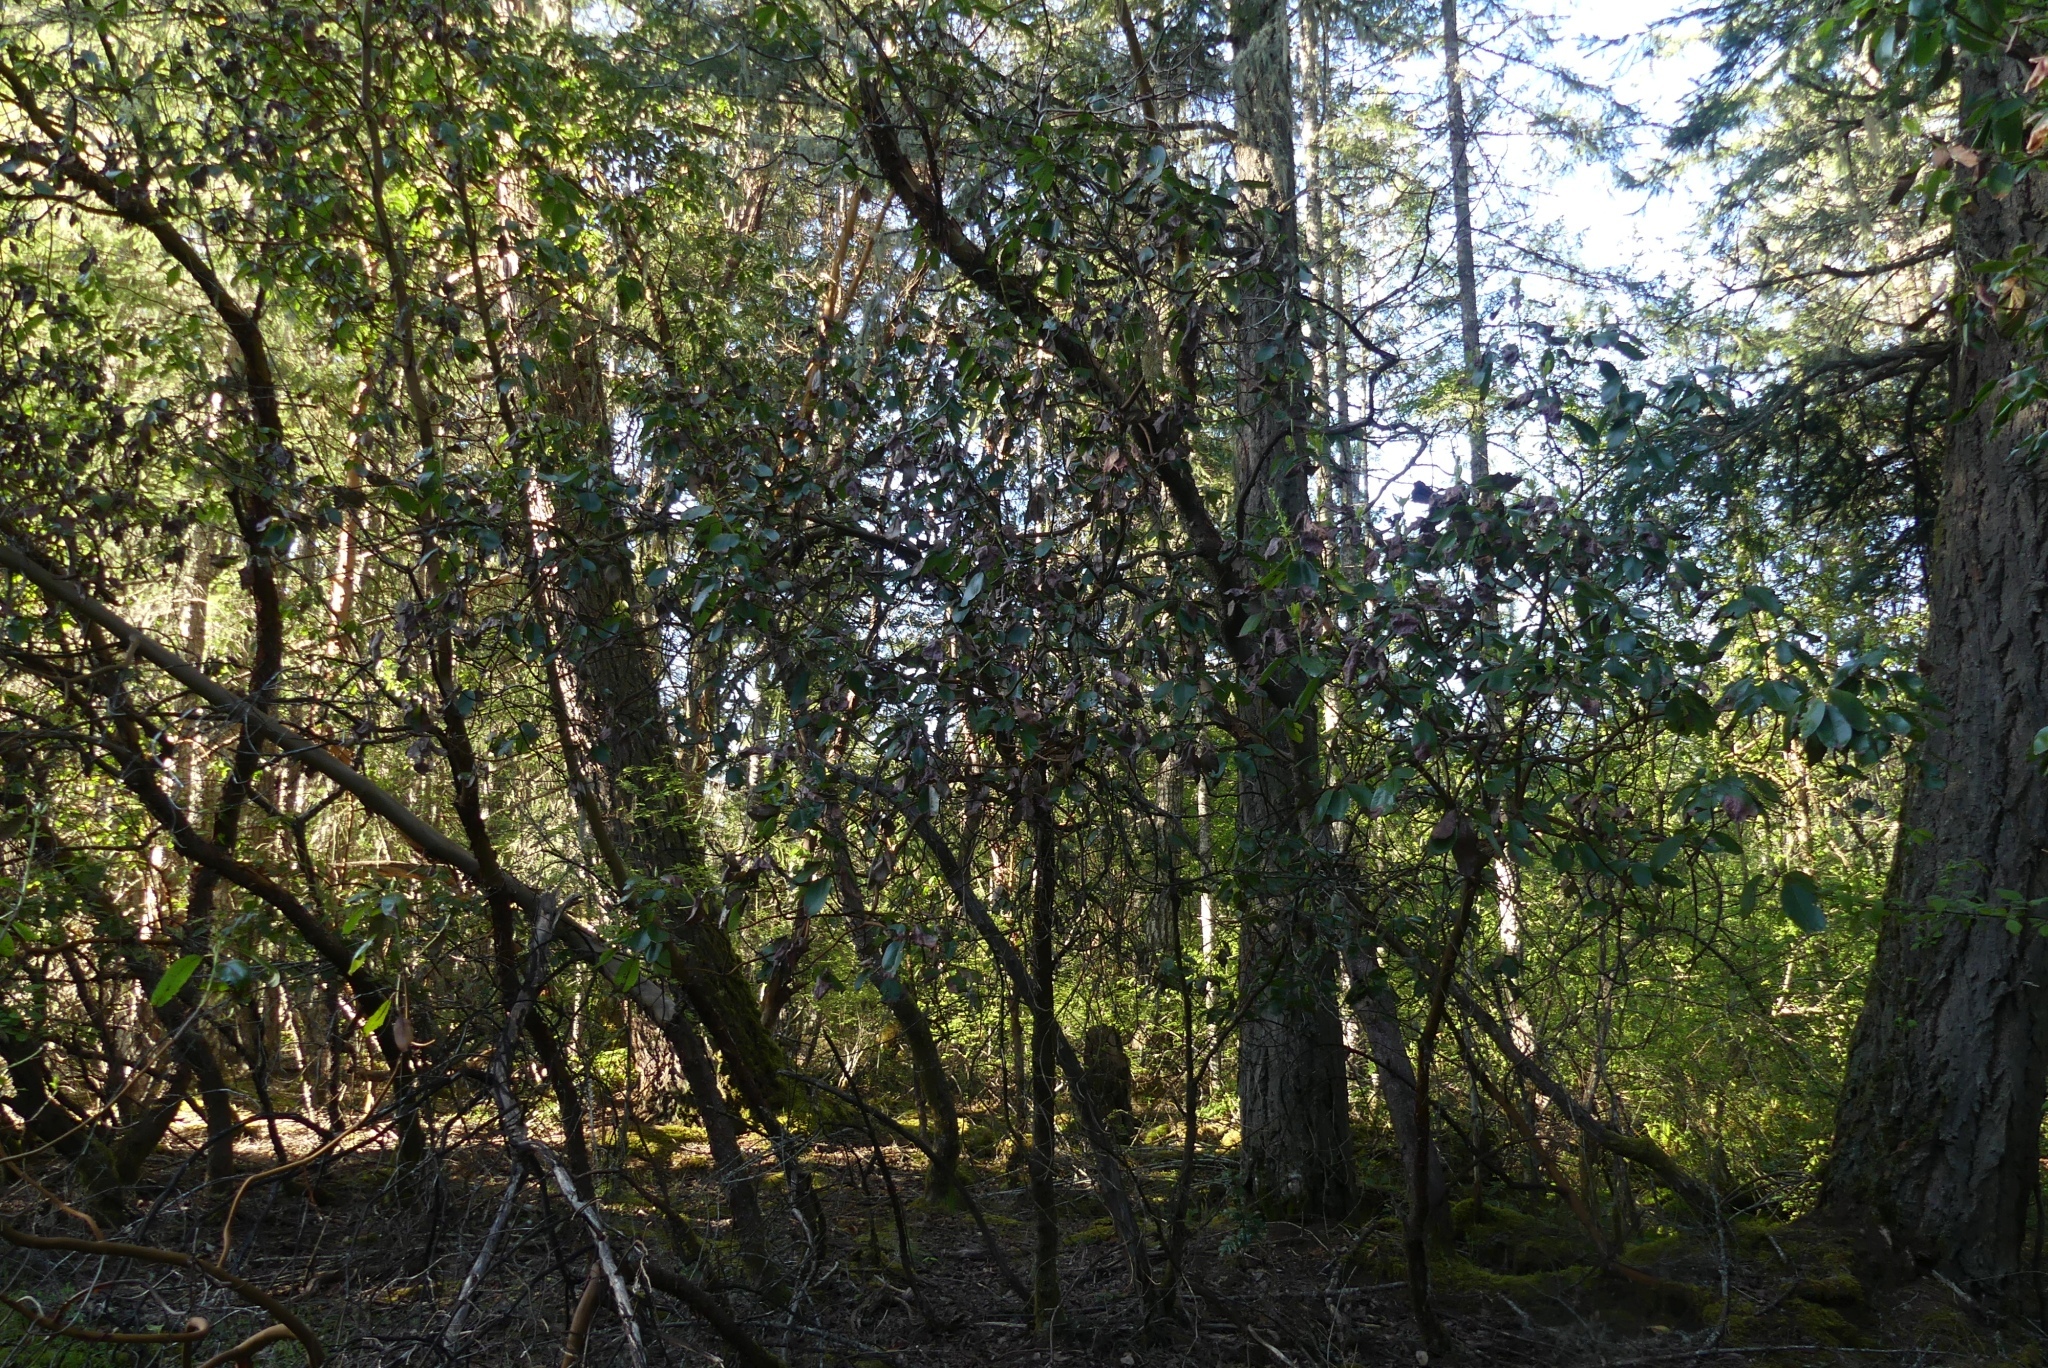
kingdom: Plantae
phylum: Tracheophyta
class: Magnoliopsida
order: Ericales
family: Ericaceae
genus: Arbutus
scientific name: Arbutus menziesii
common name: Pacific madrone
